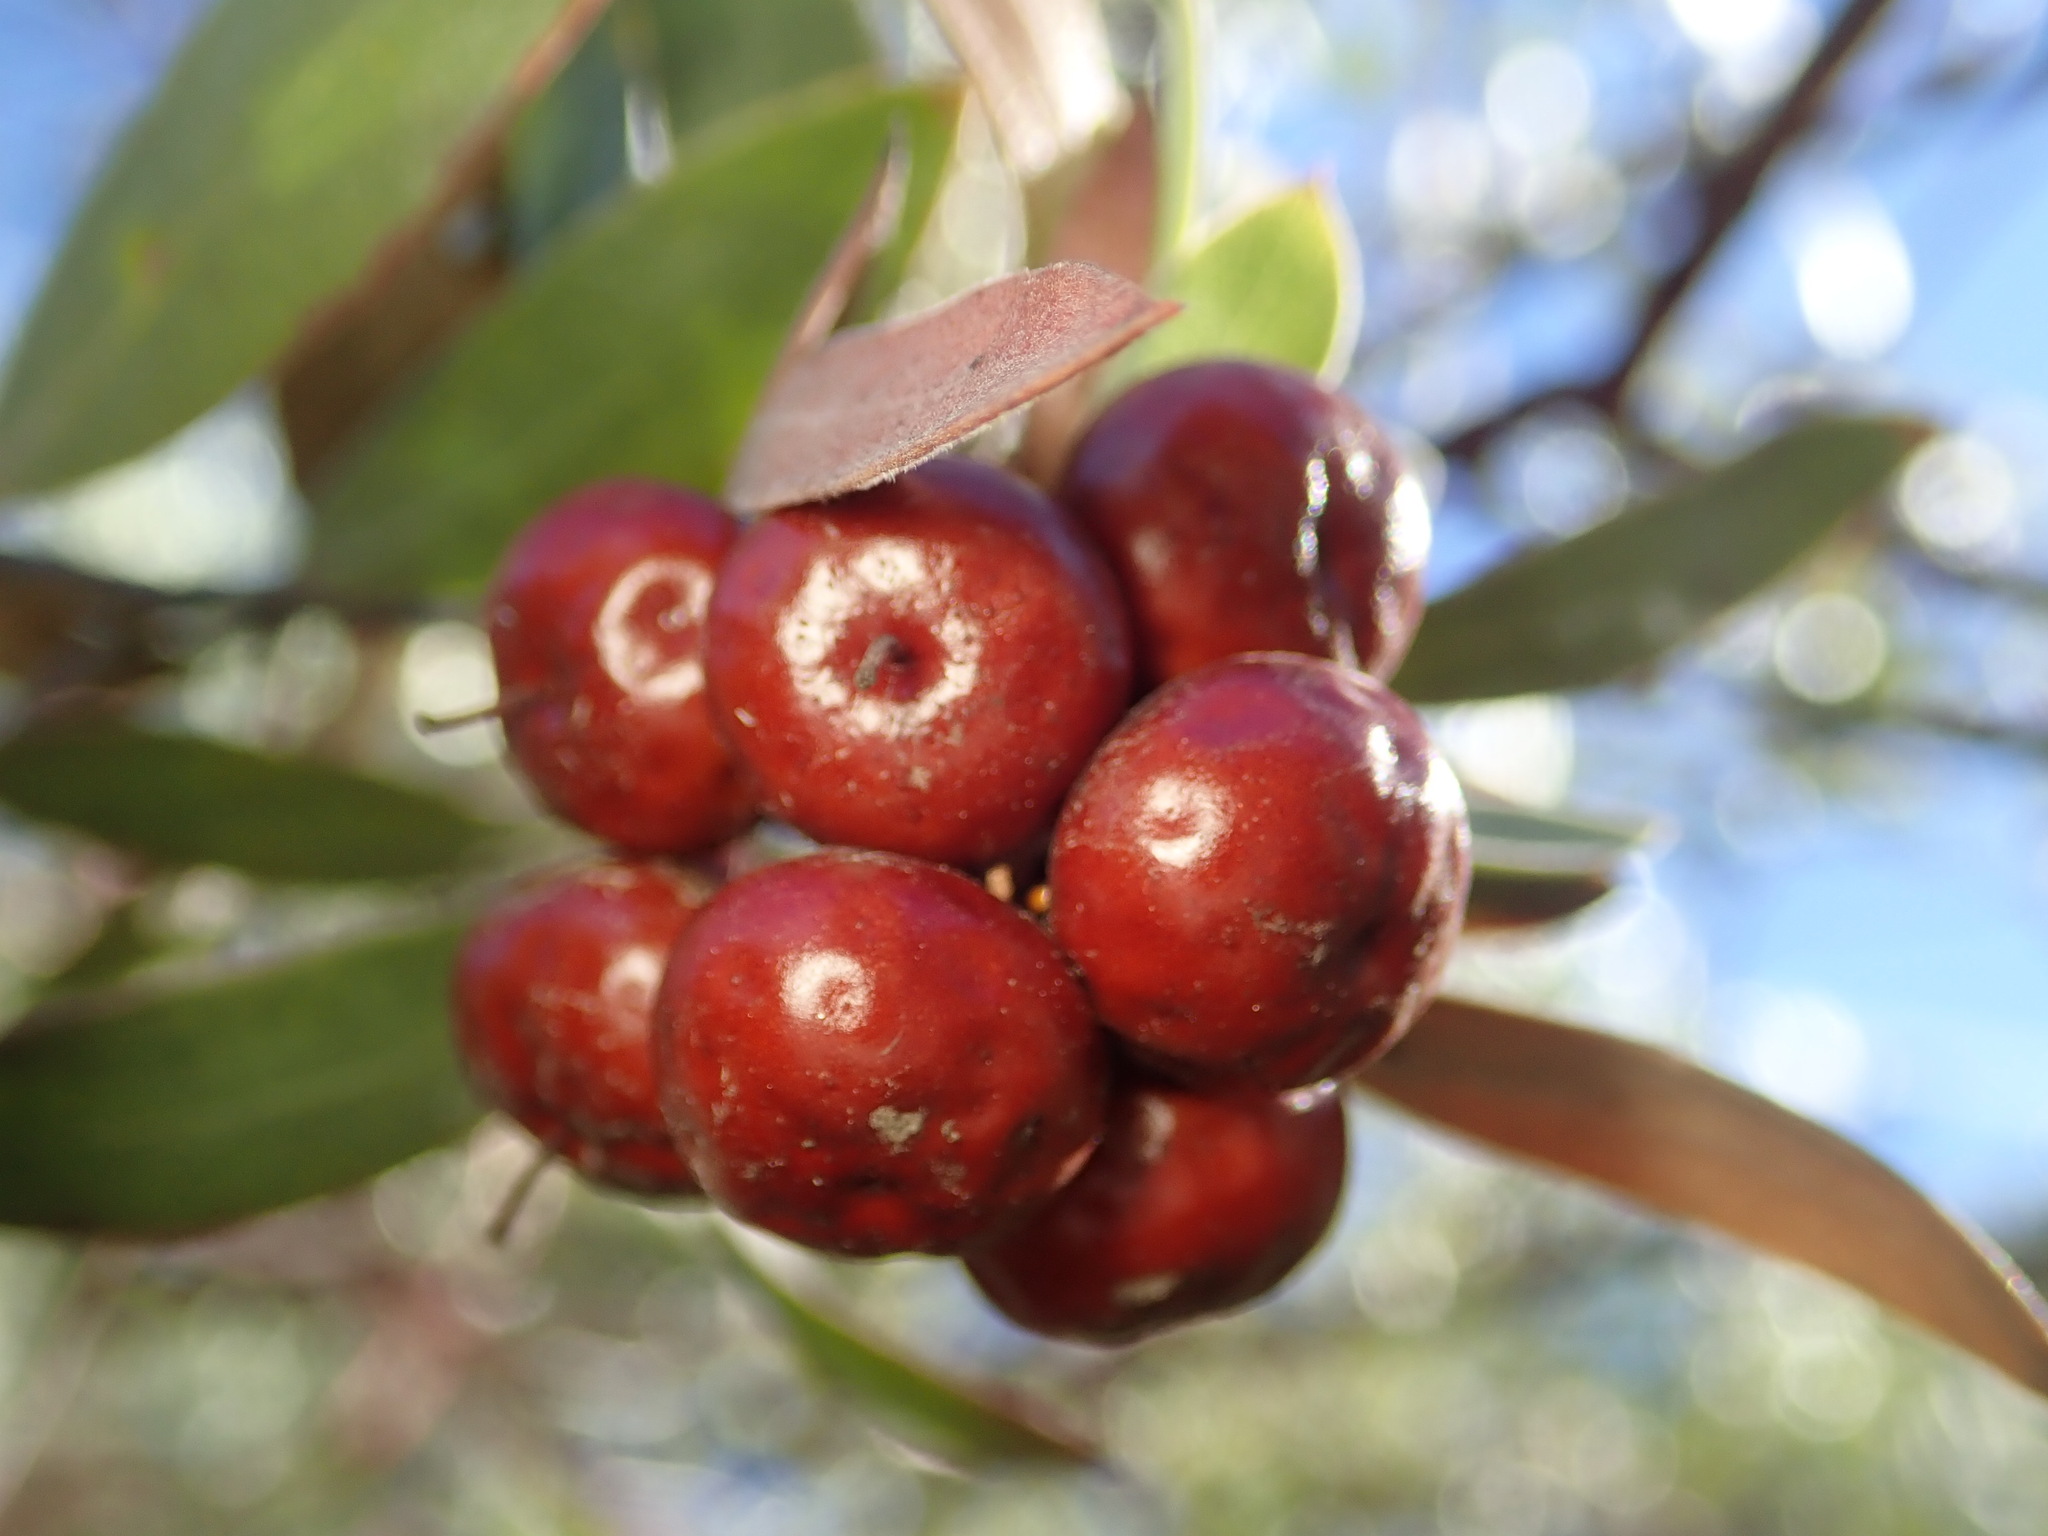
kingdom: Plantae
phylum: Tracheophyta
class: Magnoliopsida
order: Ericales
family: Ericaceae
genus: Arctostaphylos
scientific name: Arctostaphylos pungens
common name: Mexican manzanita
